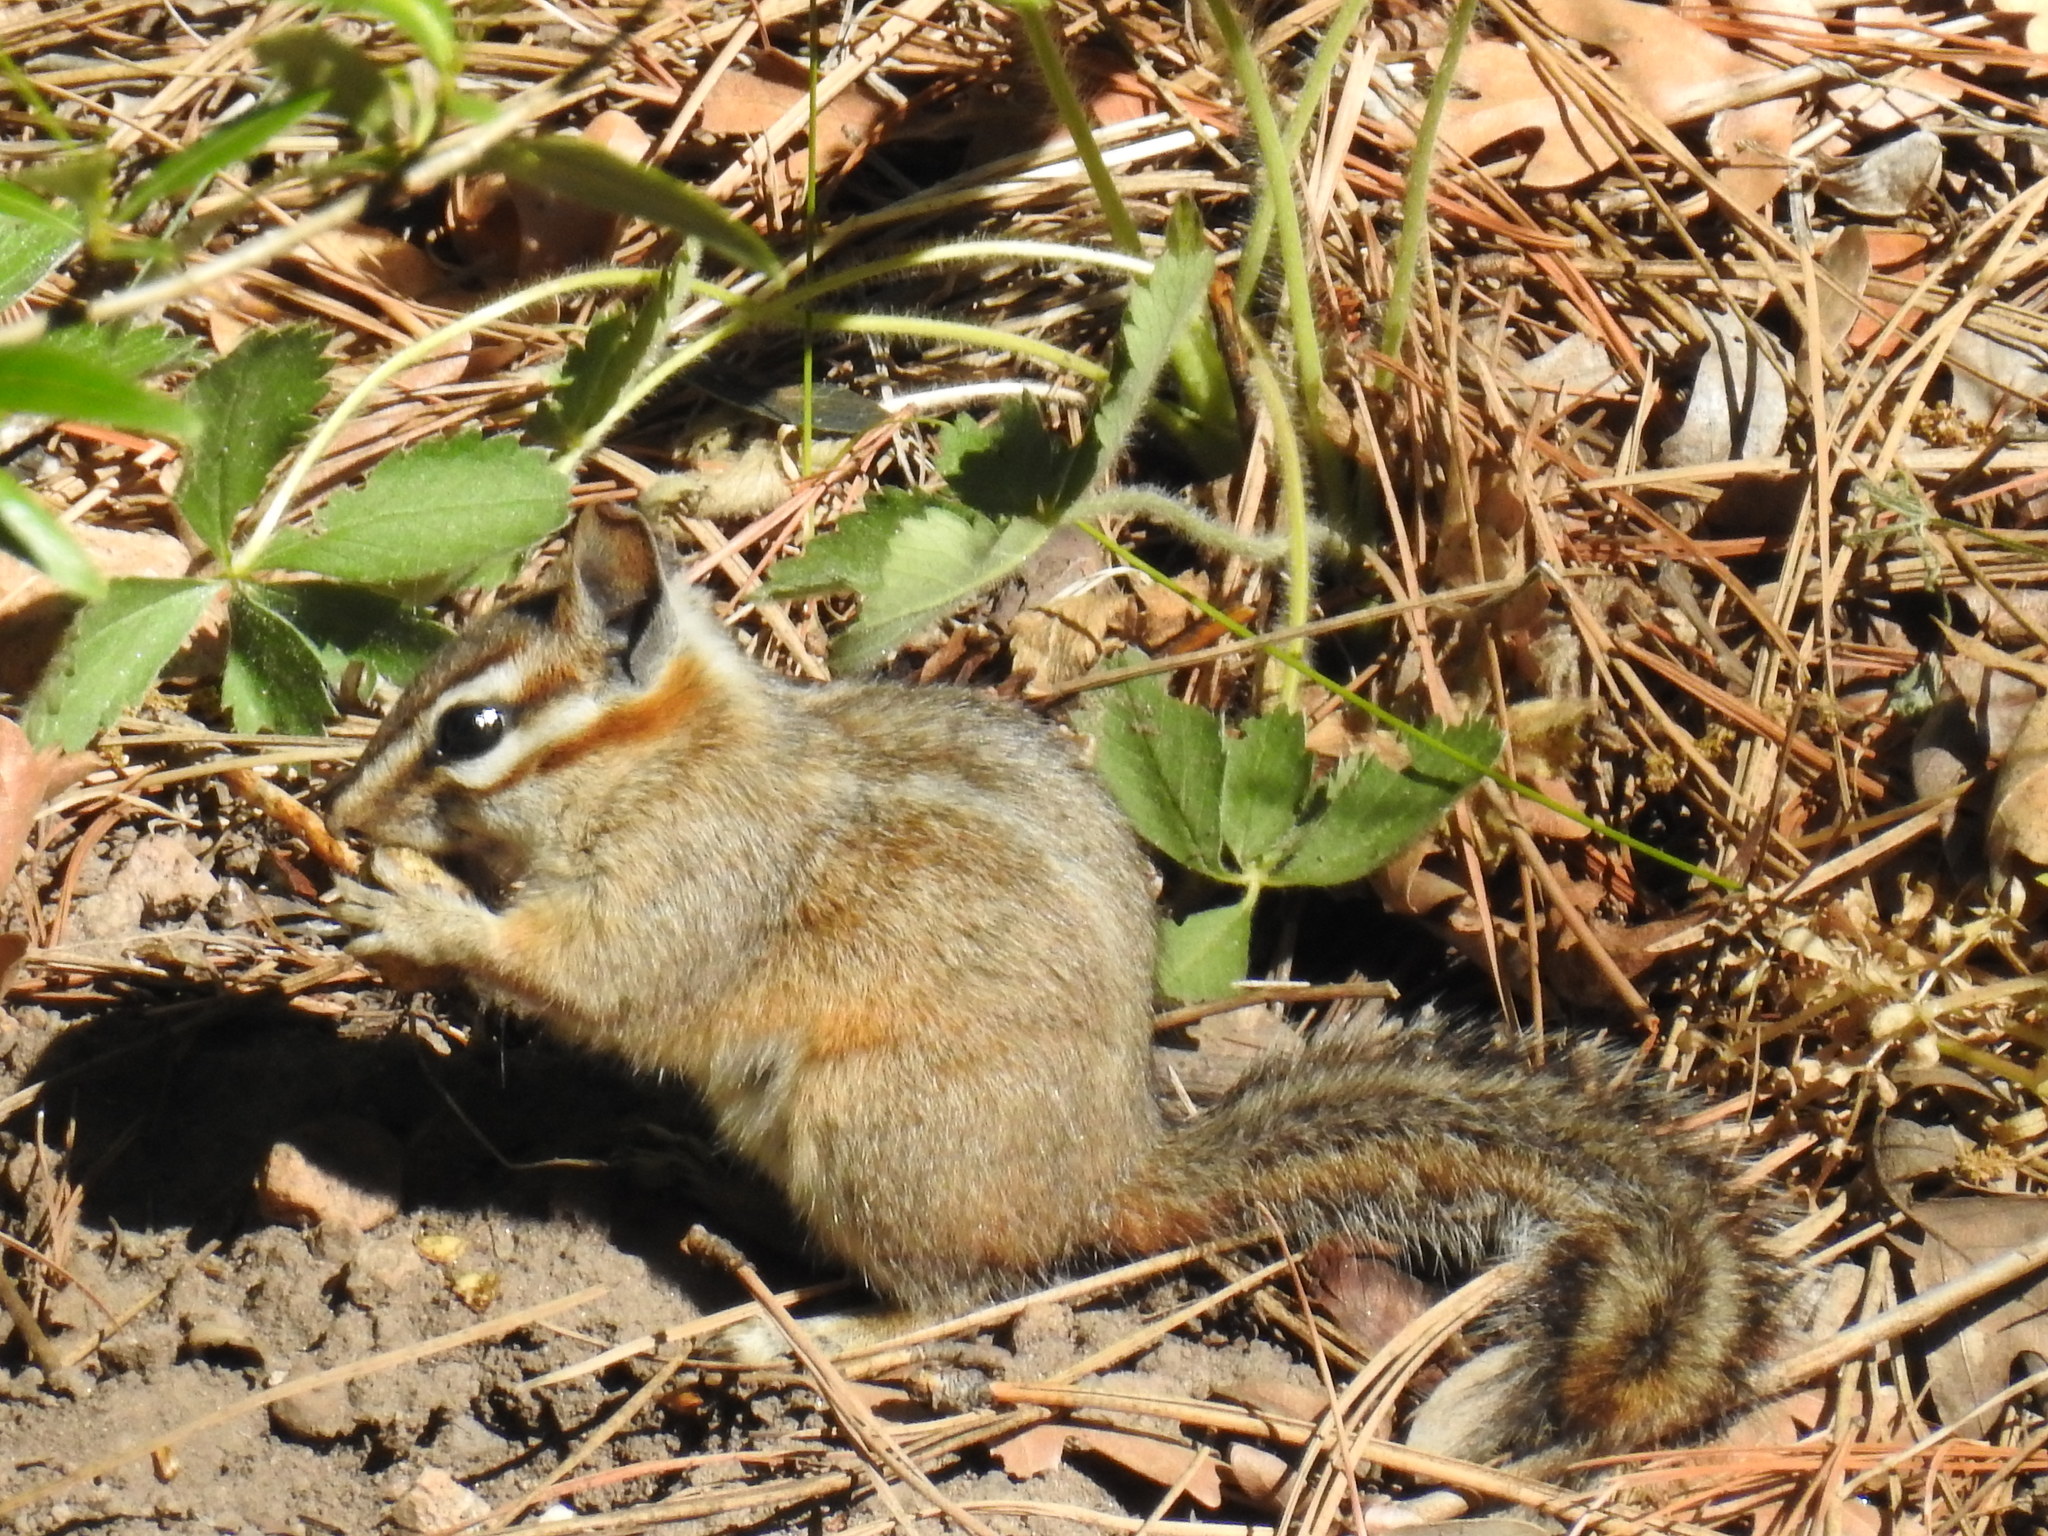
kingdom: Animalia
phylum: Chordata
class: Mammalia
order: Rodentia
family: Sciuridae
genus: Tamias
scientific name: Tamias dorsalis
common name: Cliff chipmunk
